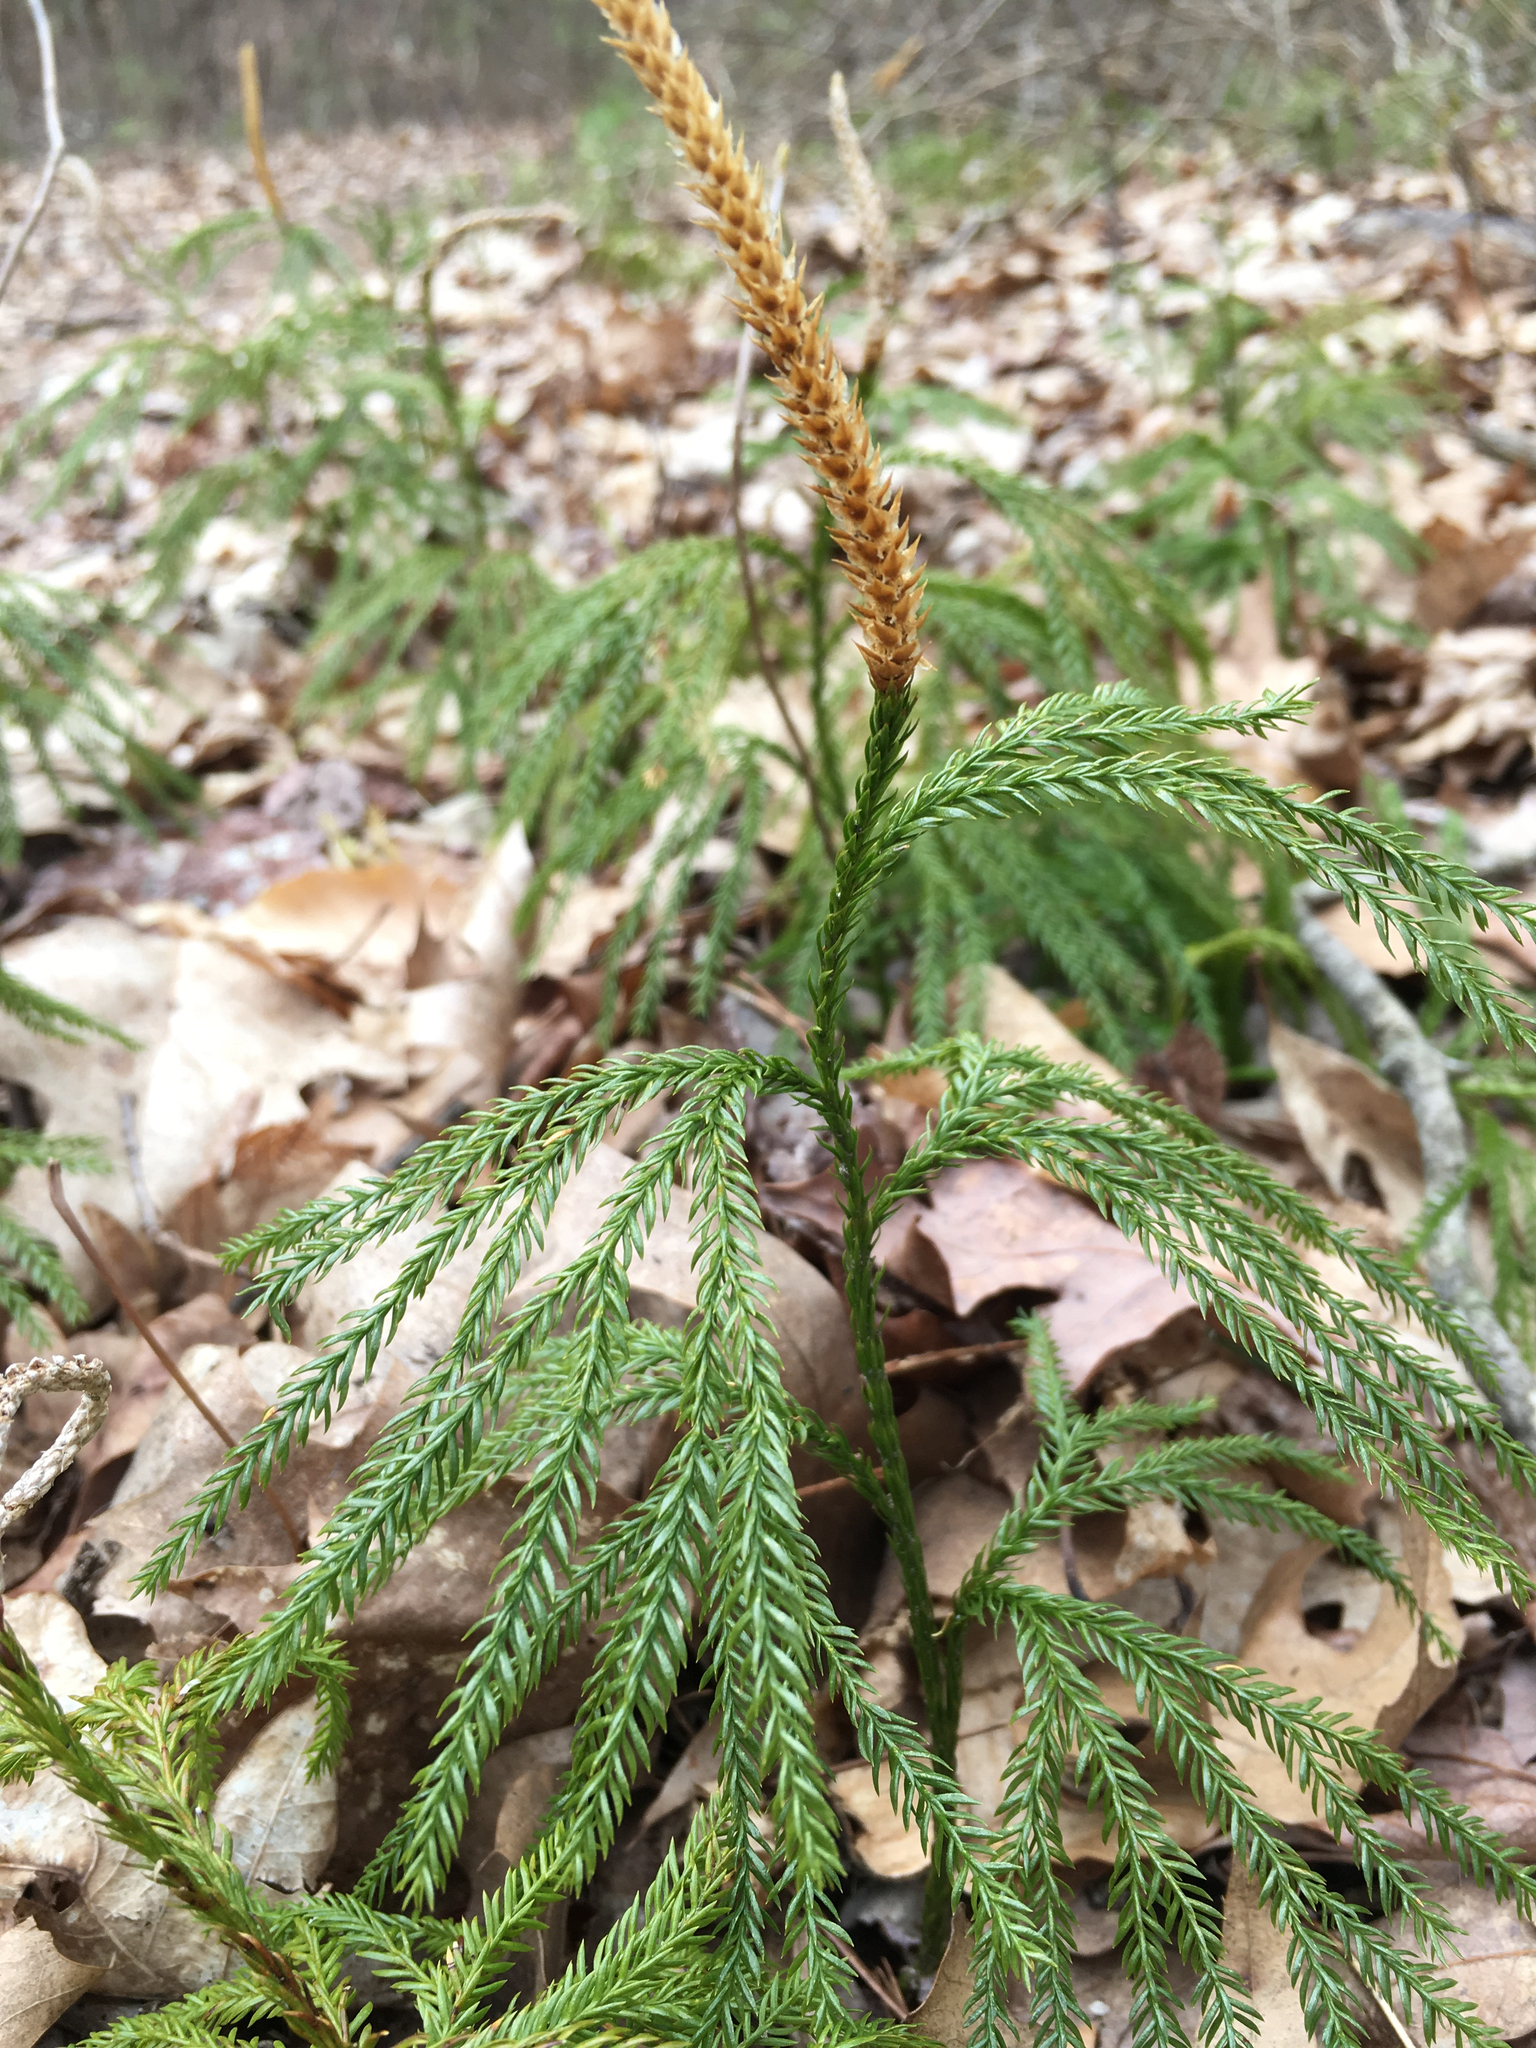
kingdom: Plantae
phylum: Tracheophyta
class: Lycopodiopsida
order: Lycopodiales
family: Lycopodiaceae
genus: Dendrolycopodium
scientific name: Dendrolycopodium obscurum
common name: Common ground-pine
